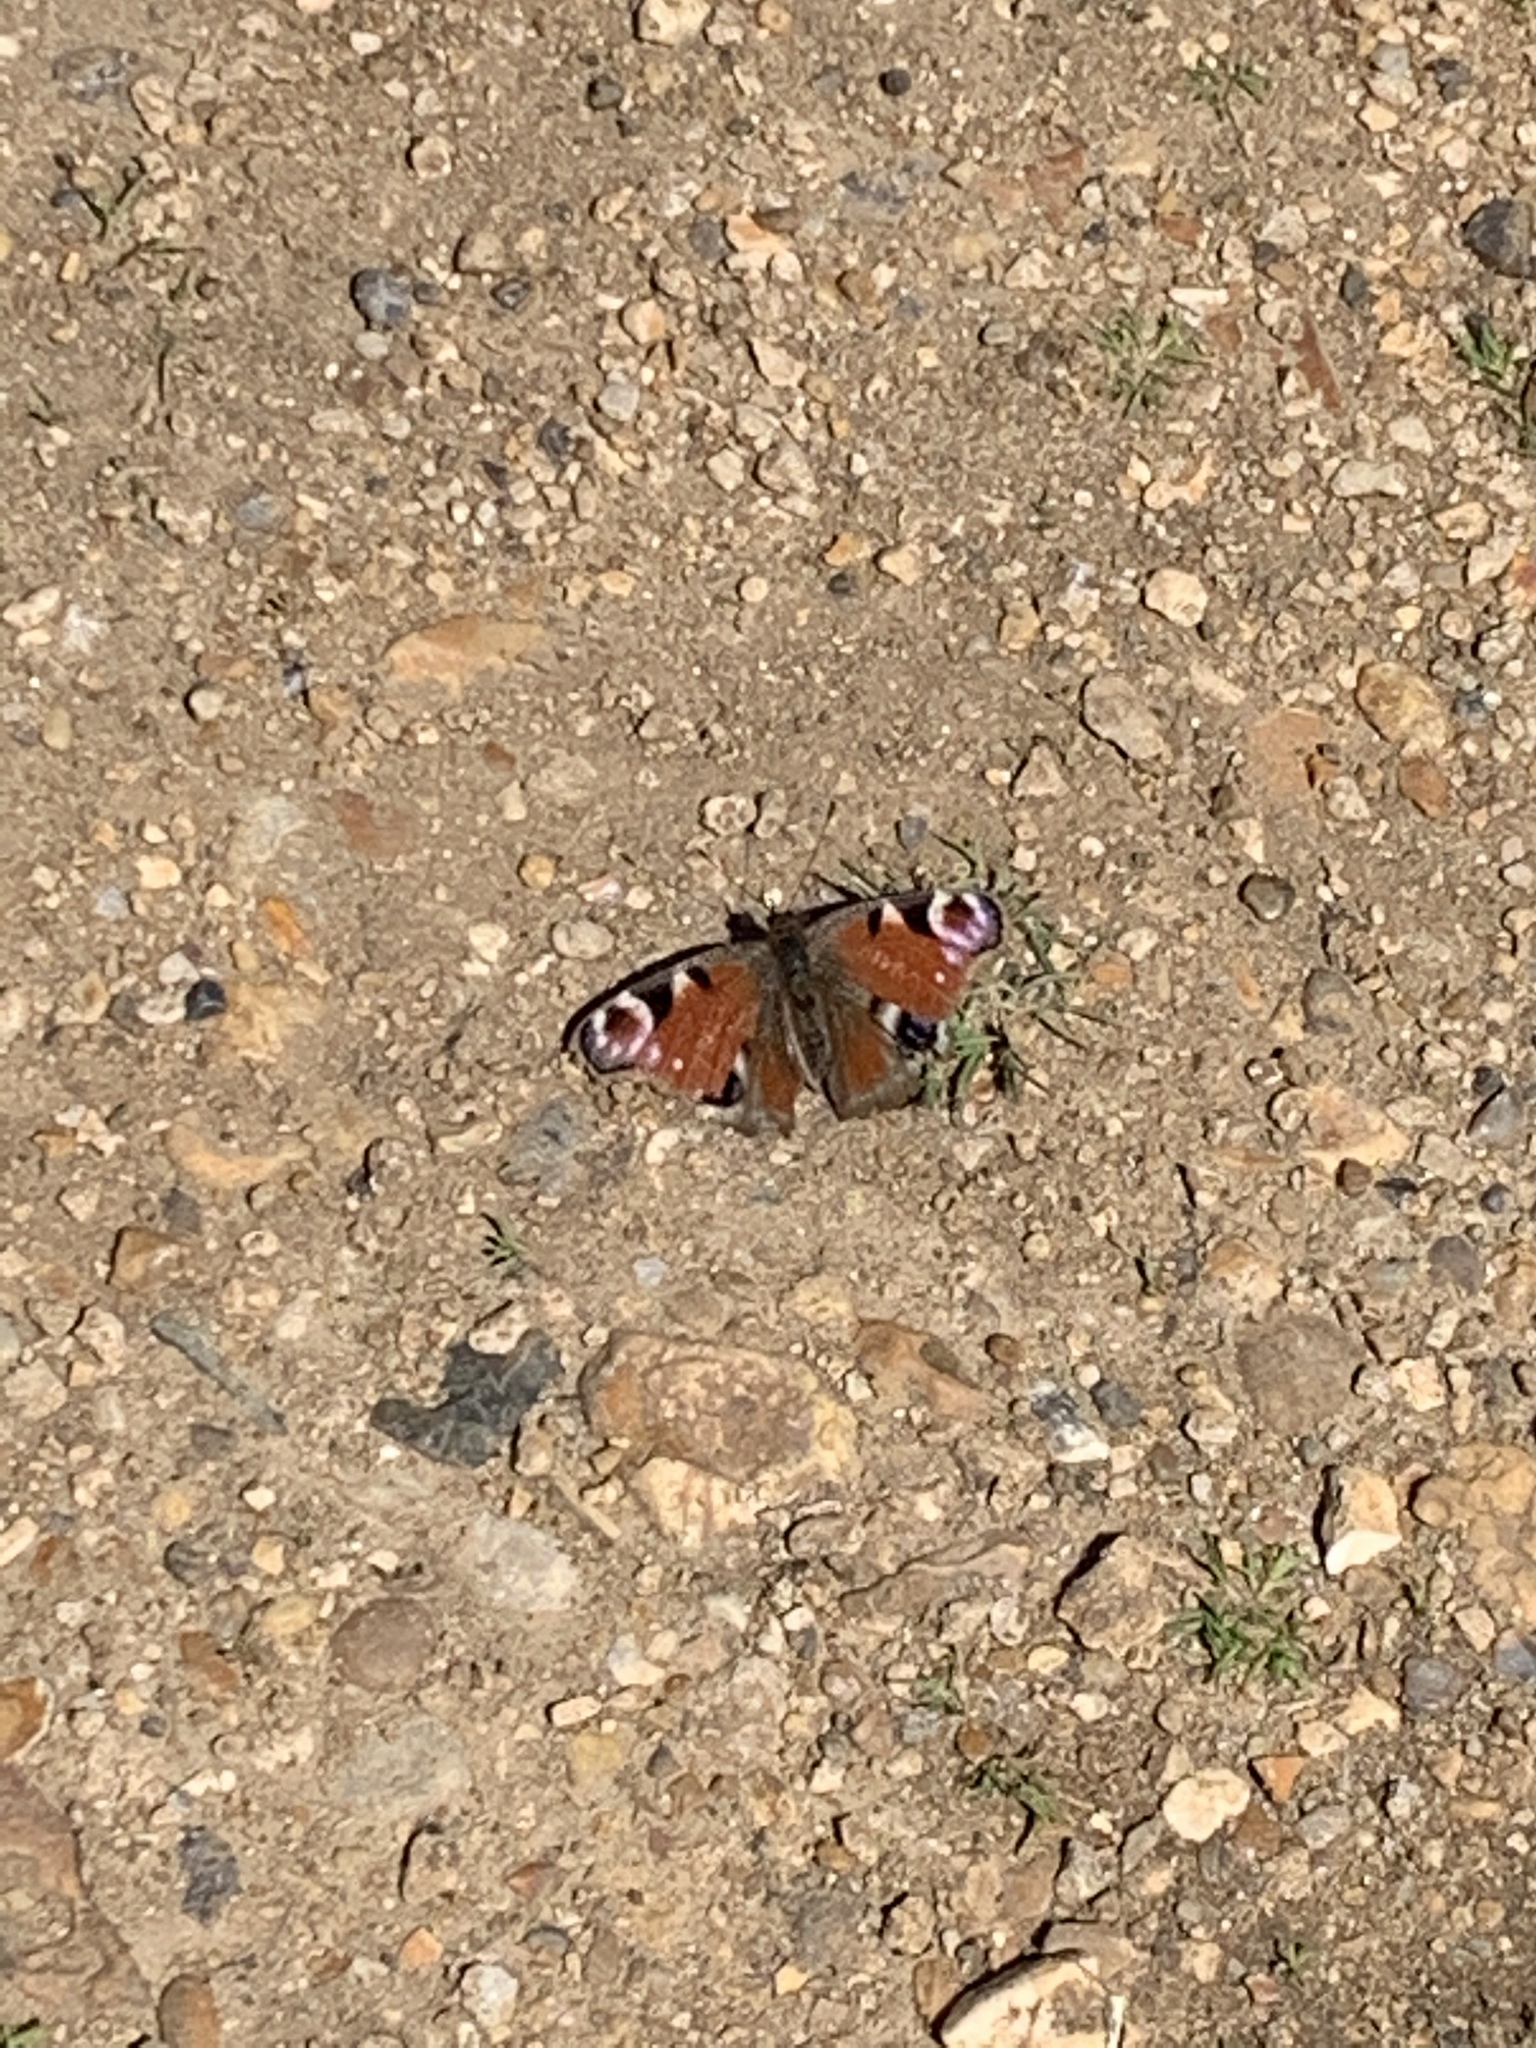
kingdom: Animalia
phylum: Arthropoda
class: Insecta
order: Lepidoptera
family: Nymphalidae
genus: Aglais
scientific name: Aglais io
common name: Peacock
